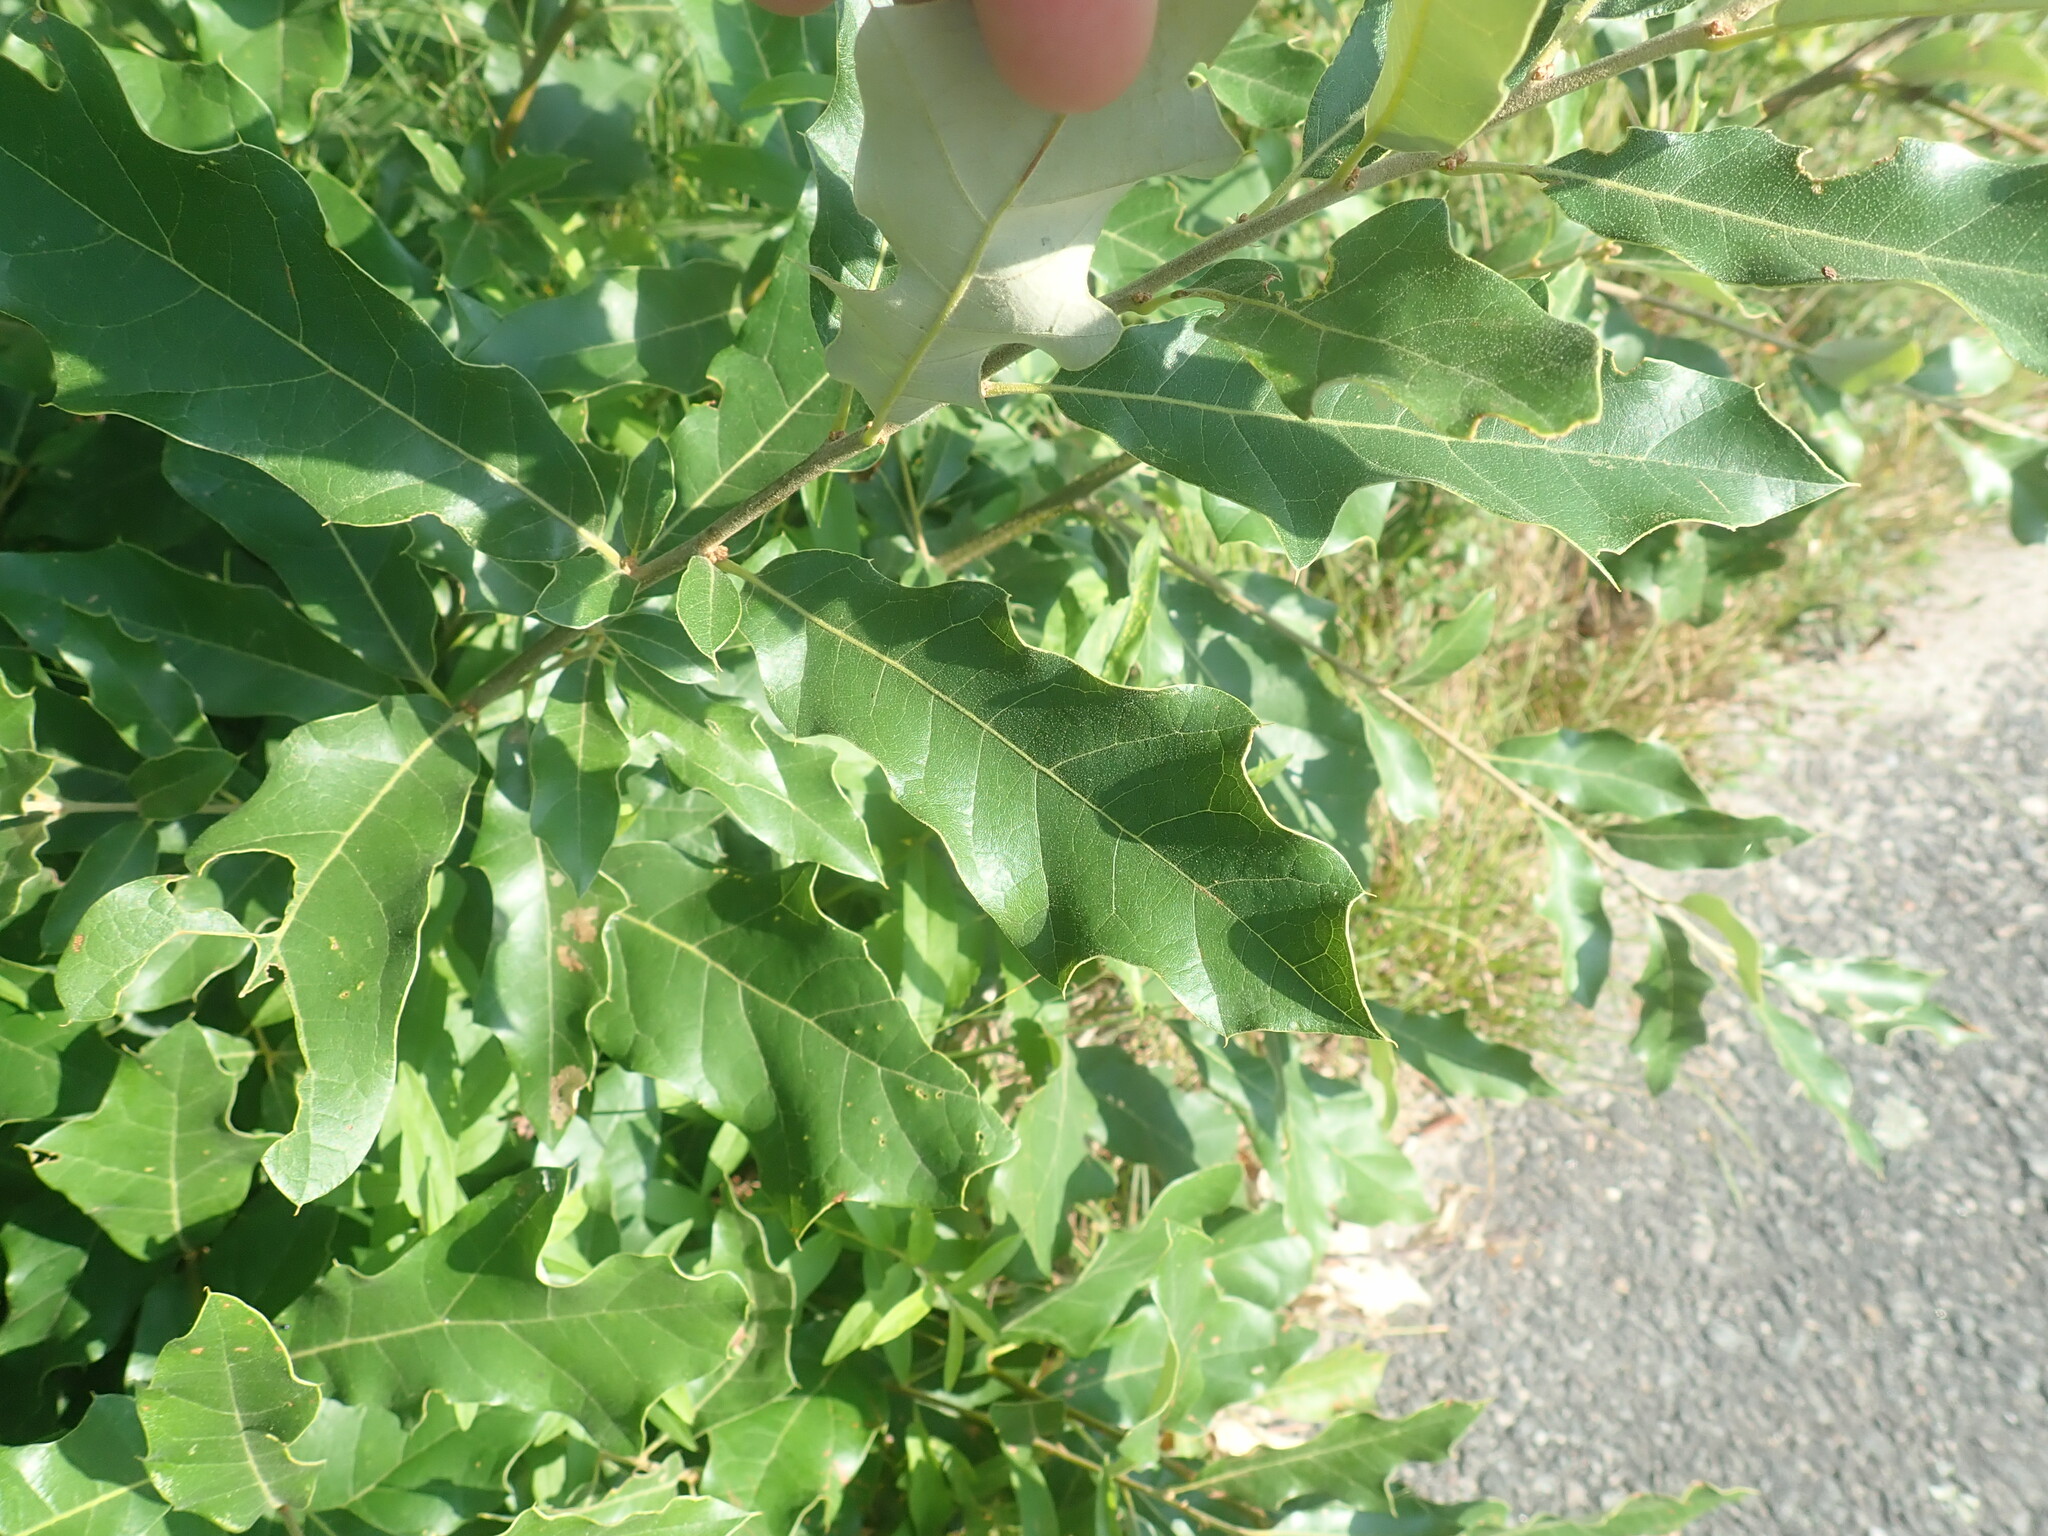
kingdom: Plantae
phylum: Tracheophyta
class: Magnoliopsida
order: Fagales
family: Fagaceae
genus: Quercus
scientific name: Quercus prinoides
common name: Dwarf chinkapin oak
